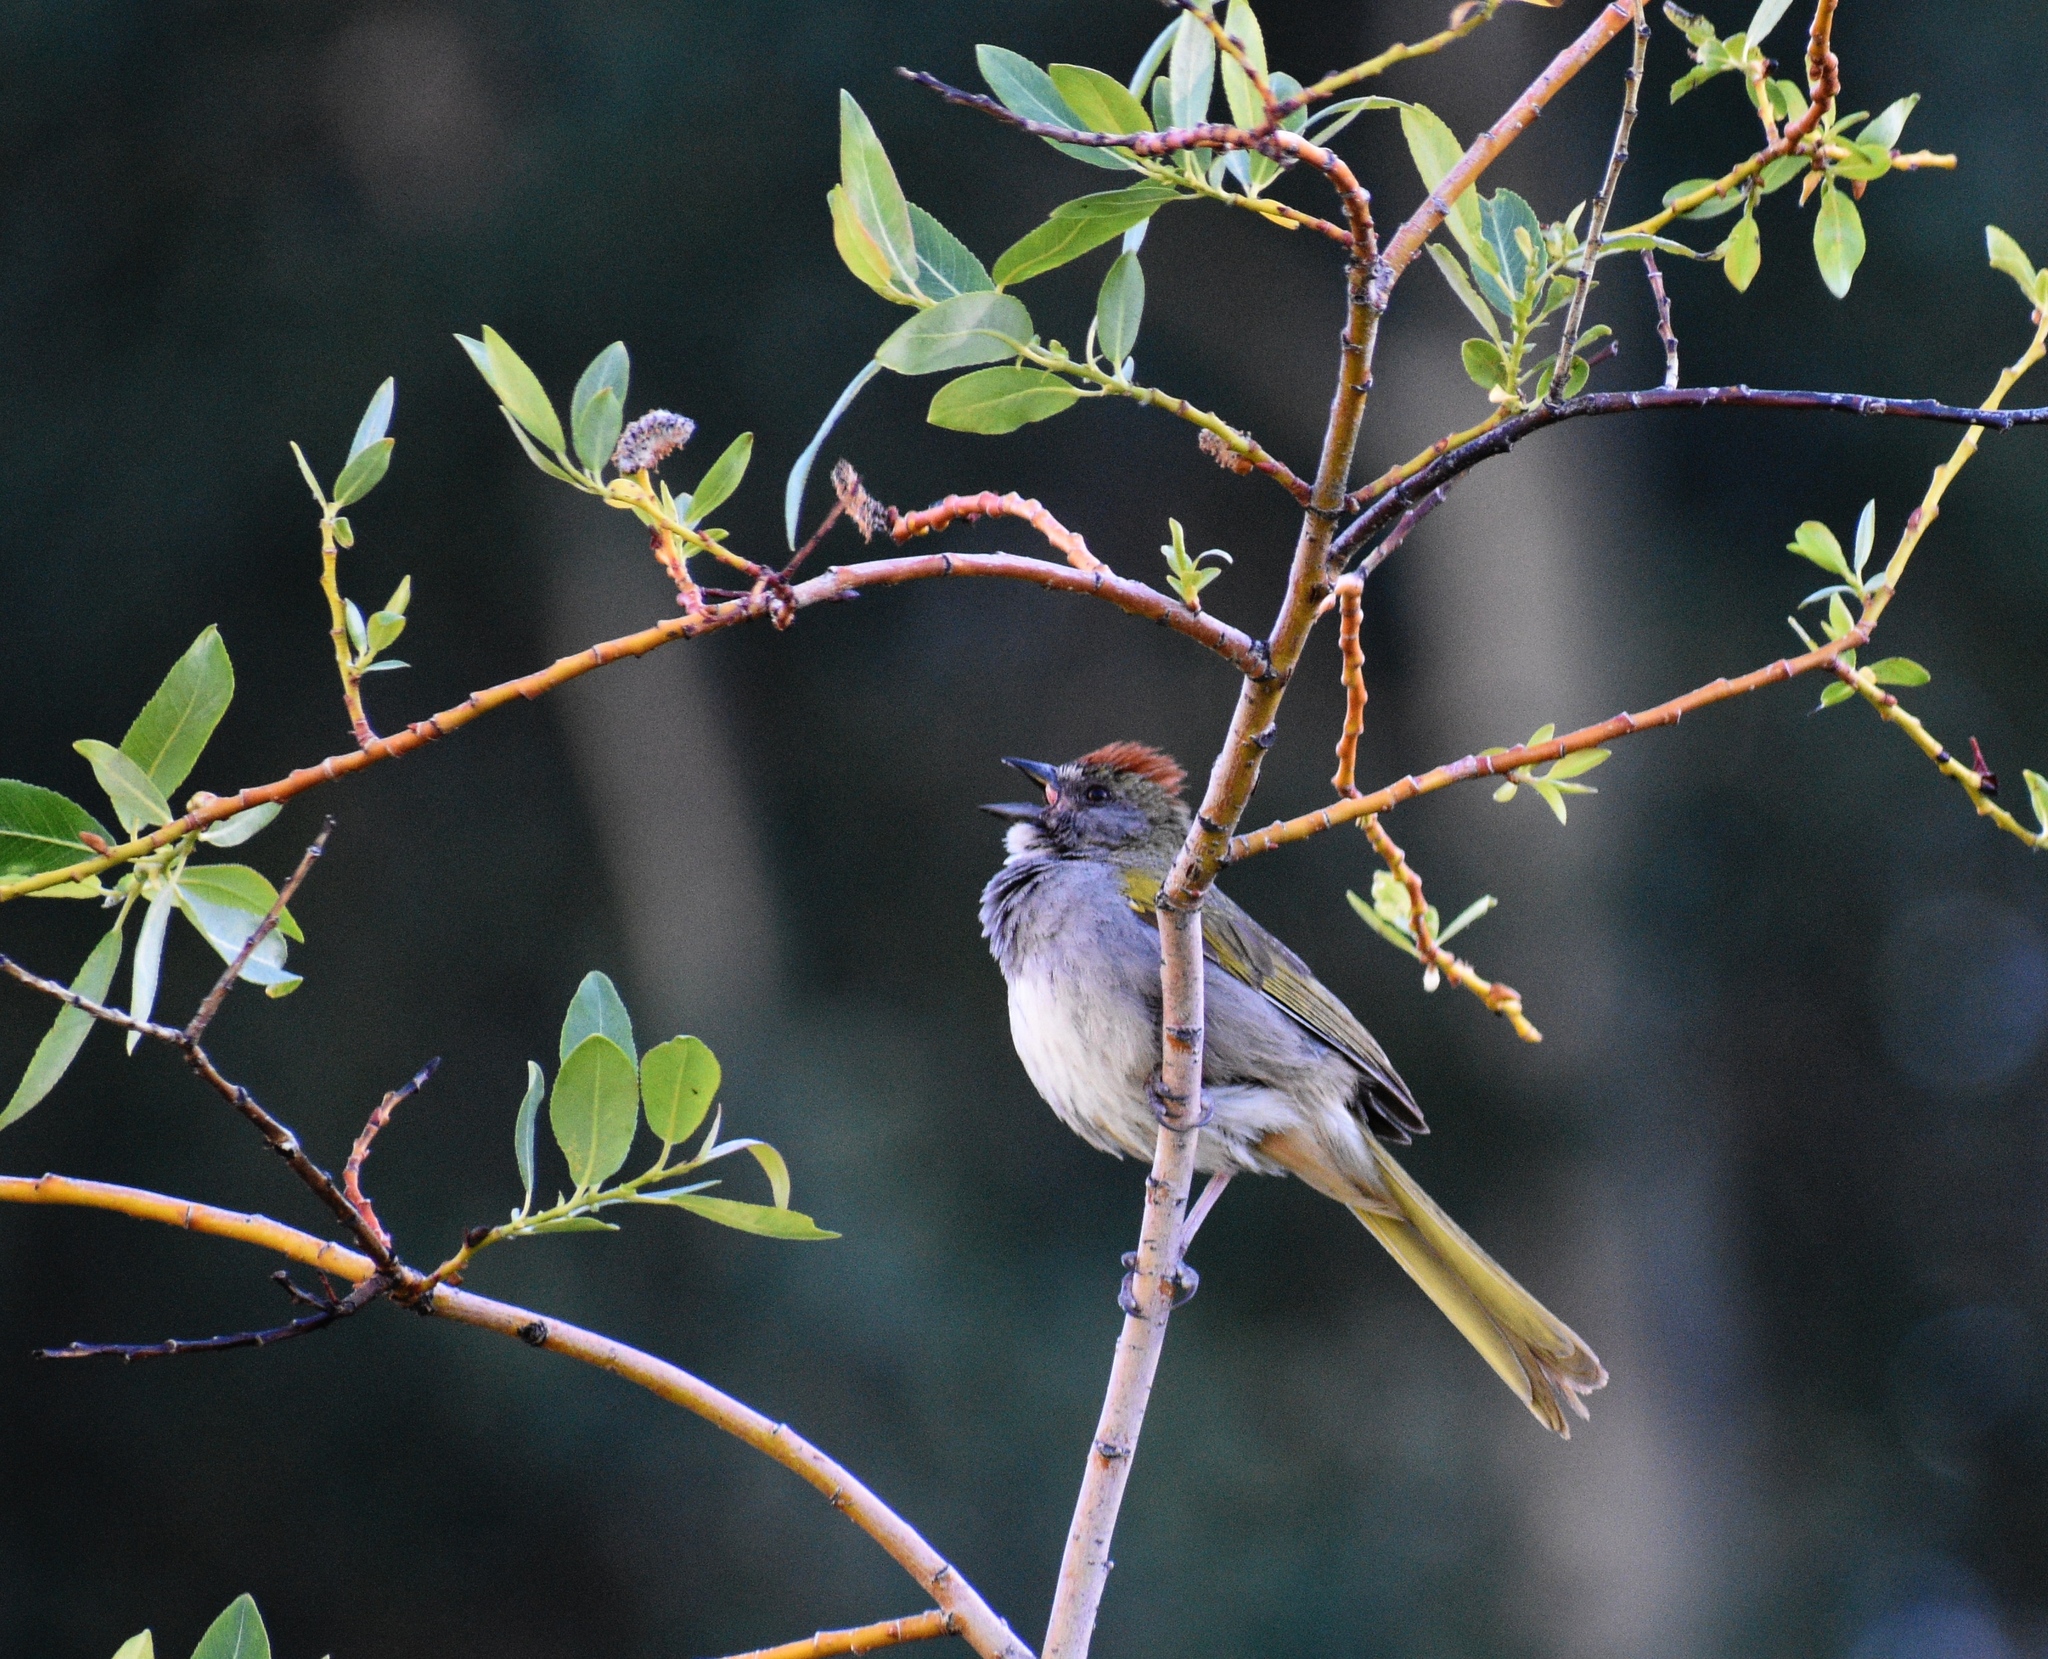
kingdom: Animalia
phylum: Chordata
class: Aves
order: Passeriformes
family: Passerellidae
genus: Pipilo
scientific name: Pipilo chlorurus
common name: Green-tailed towhee
